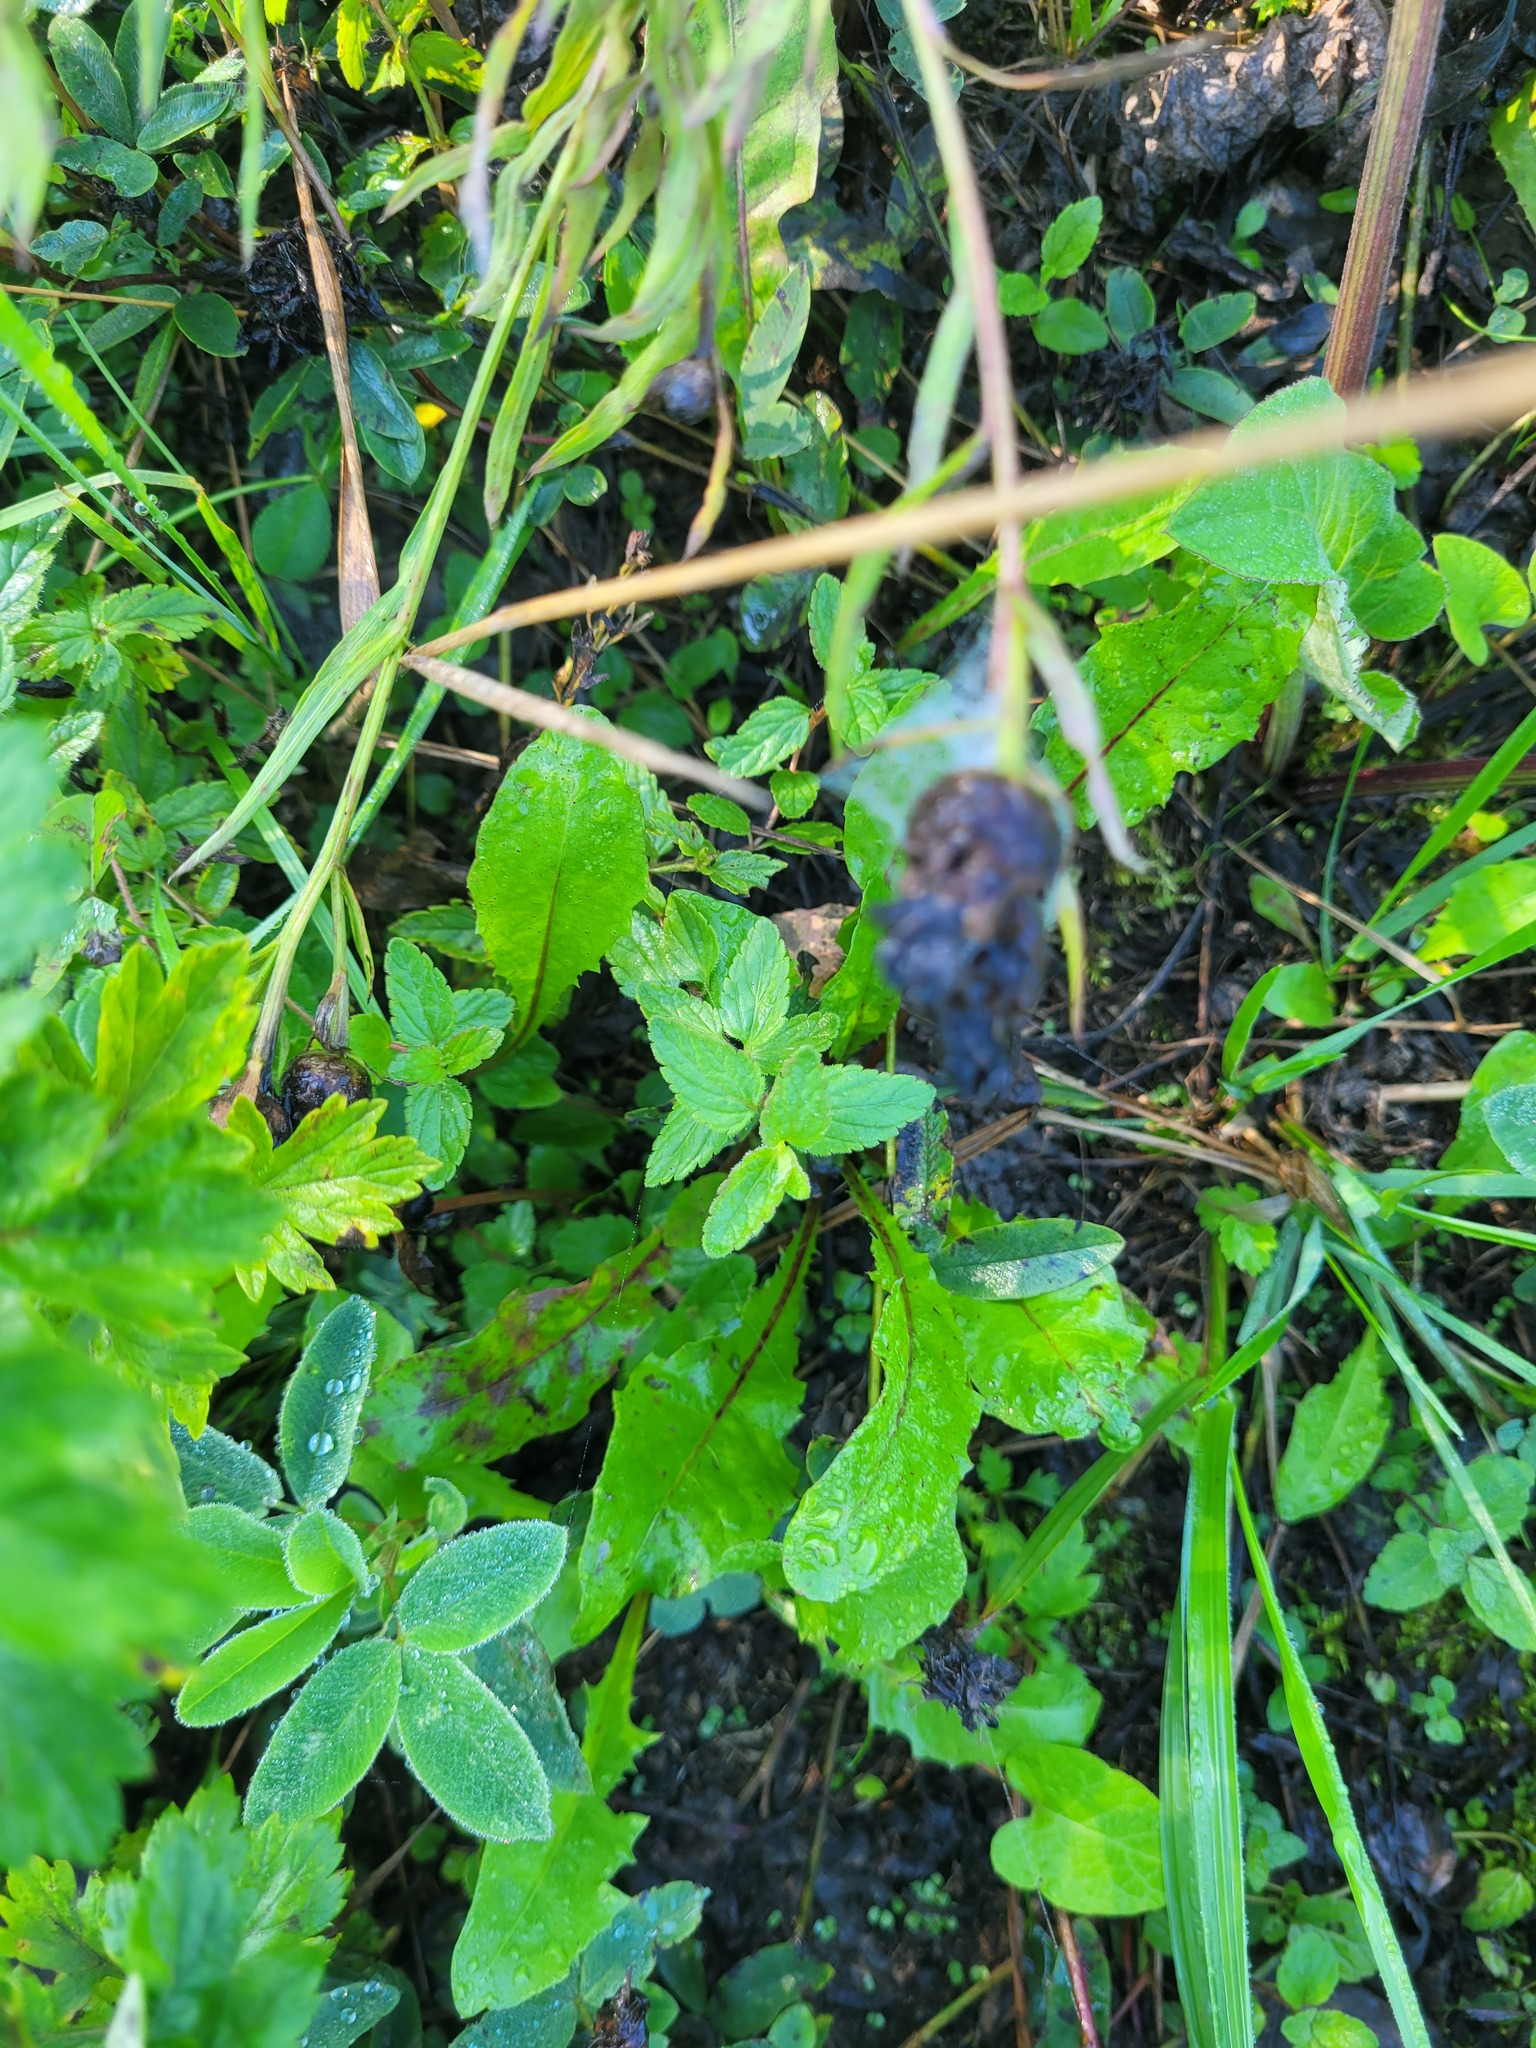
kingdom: Plantae
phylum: Tracheophyta
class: Magnoliopsida
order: Lamiales
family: Plantaginaceae
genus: Veronica
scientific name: Veronica chamaedrys
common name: Germander speedwell
